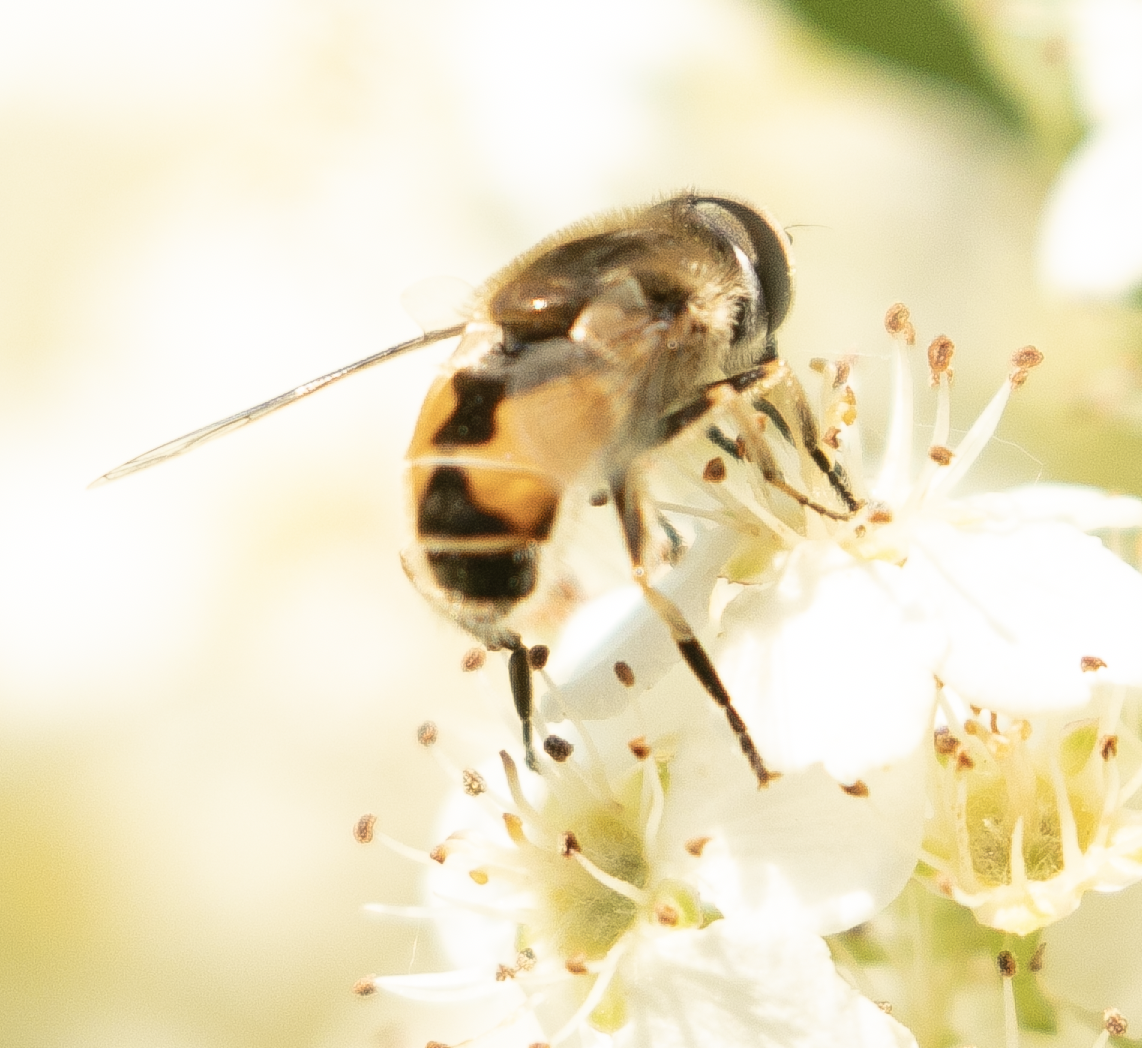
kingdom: Animalia
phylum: Arthropoda
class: Insecta
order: Diptera
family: Syrphidae
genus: Eristalis
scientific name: Eristalis arbustorum
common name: Hover fly
